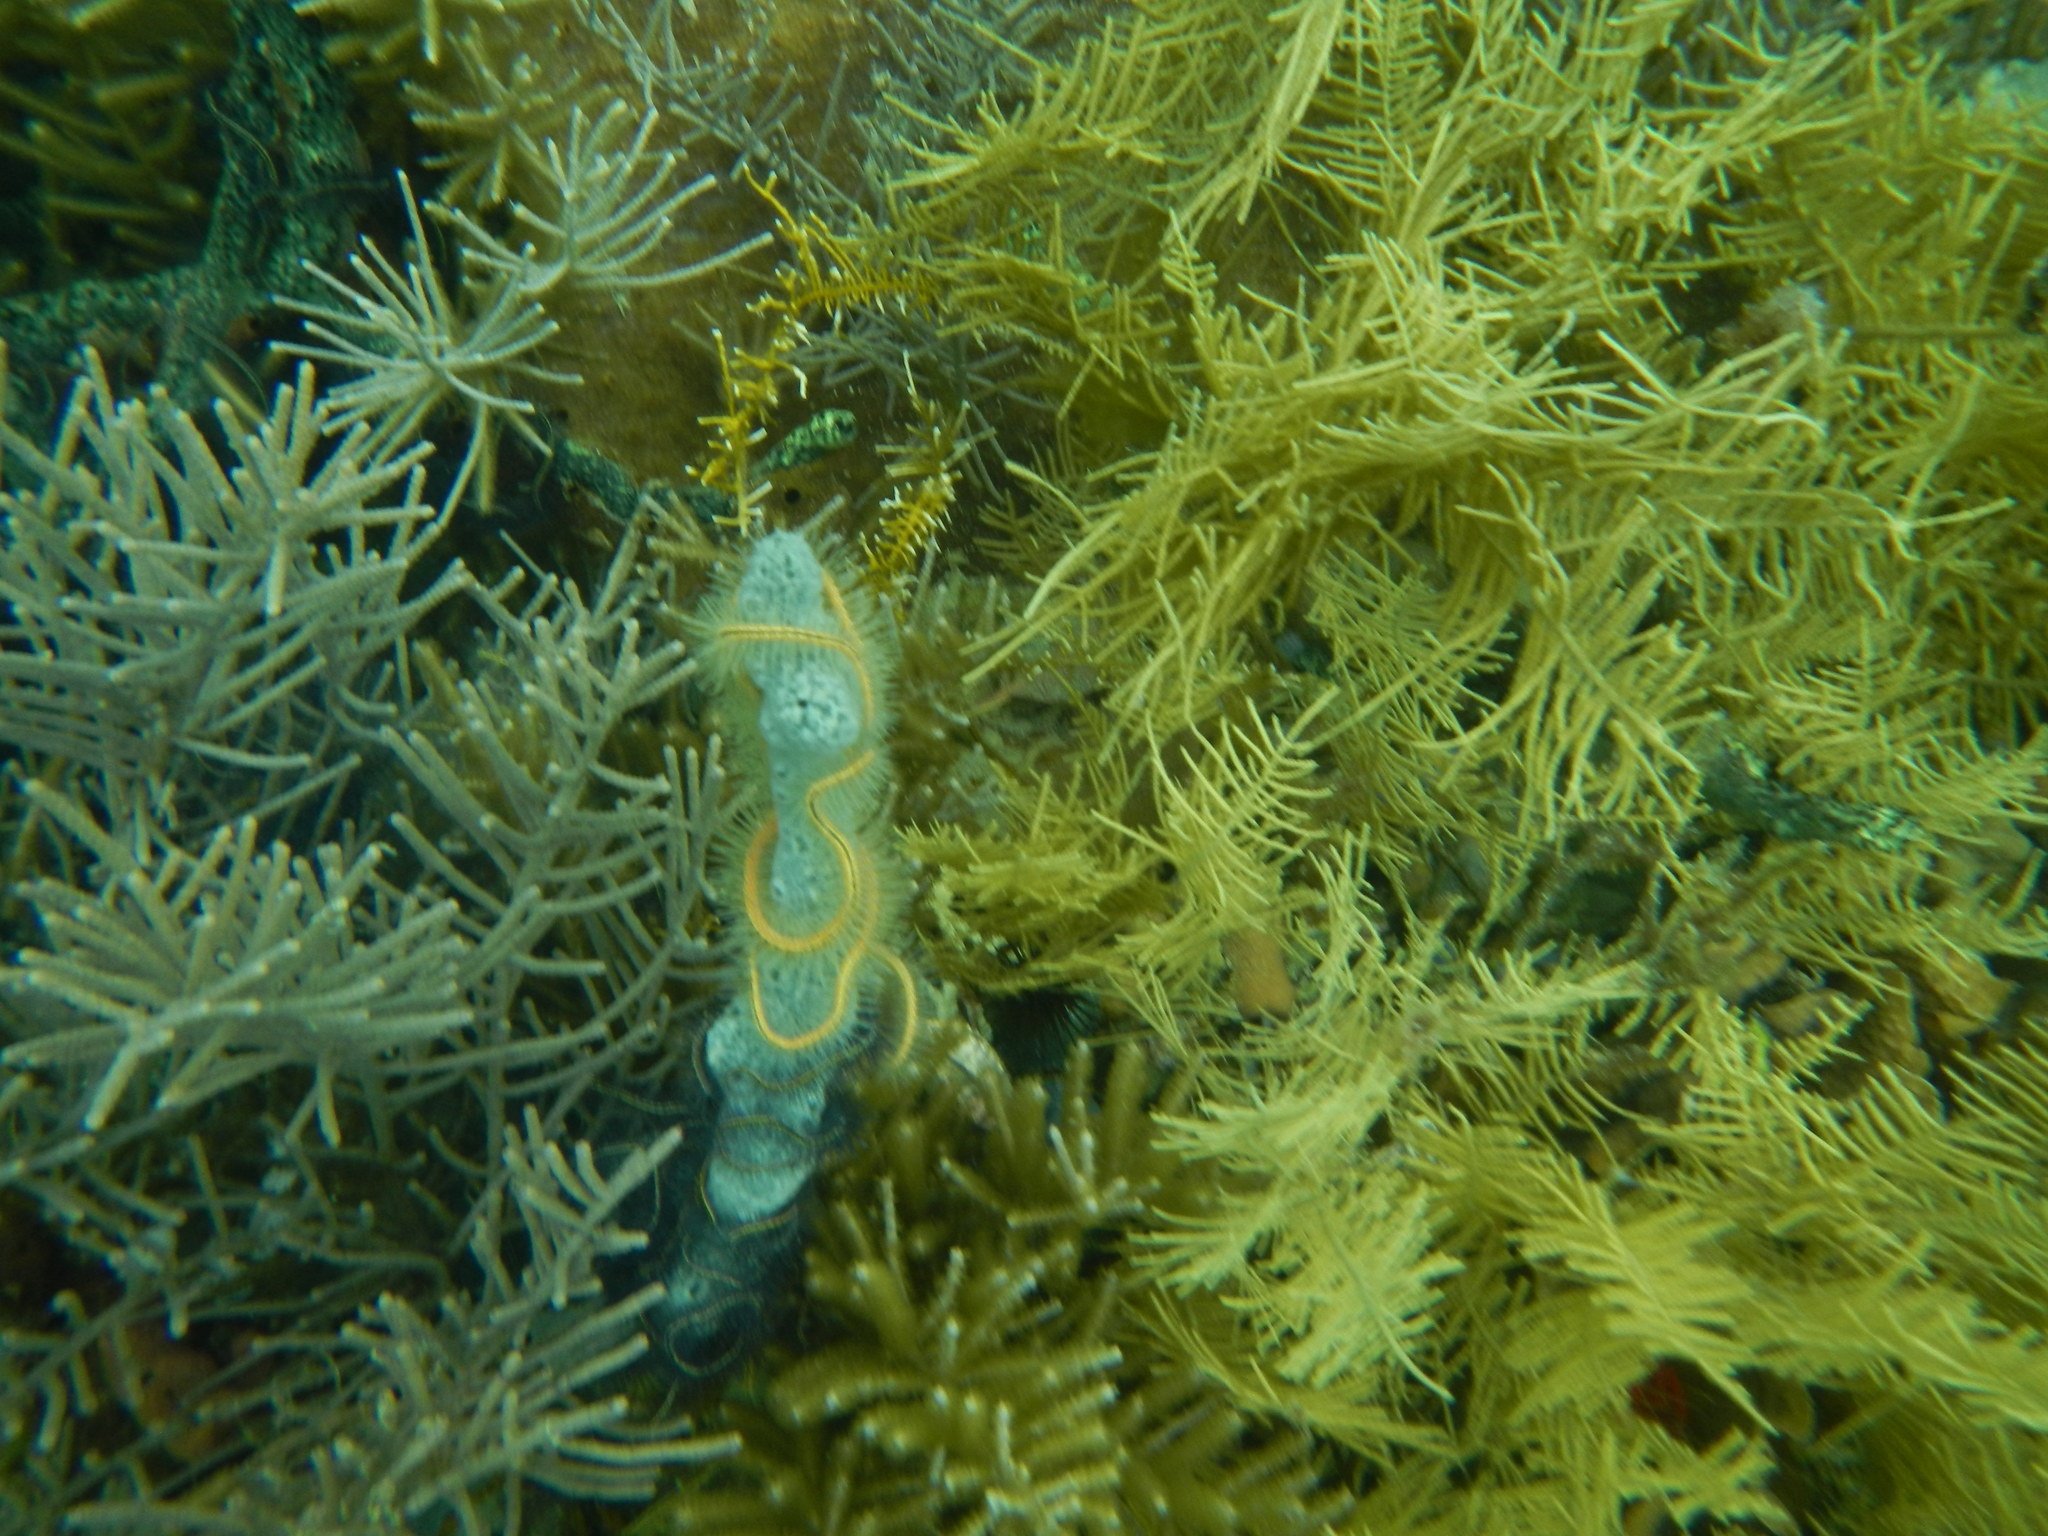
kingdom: Animalia
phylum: Echinodermata
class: Ophiuroidea
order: Amphilepidida
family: Ophiotrichidae
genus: Ophiothrix
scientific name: Ophiothrix suensonii
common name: Sponge brittle star
